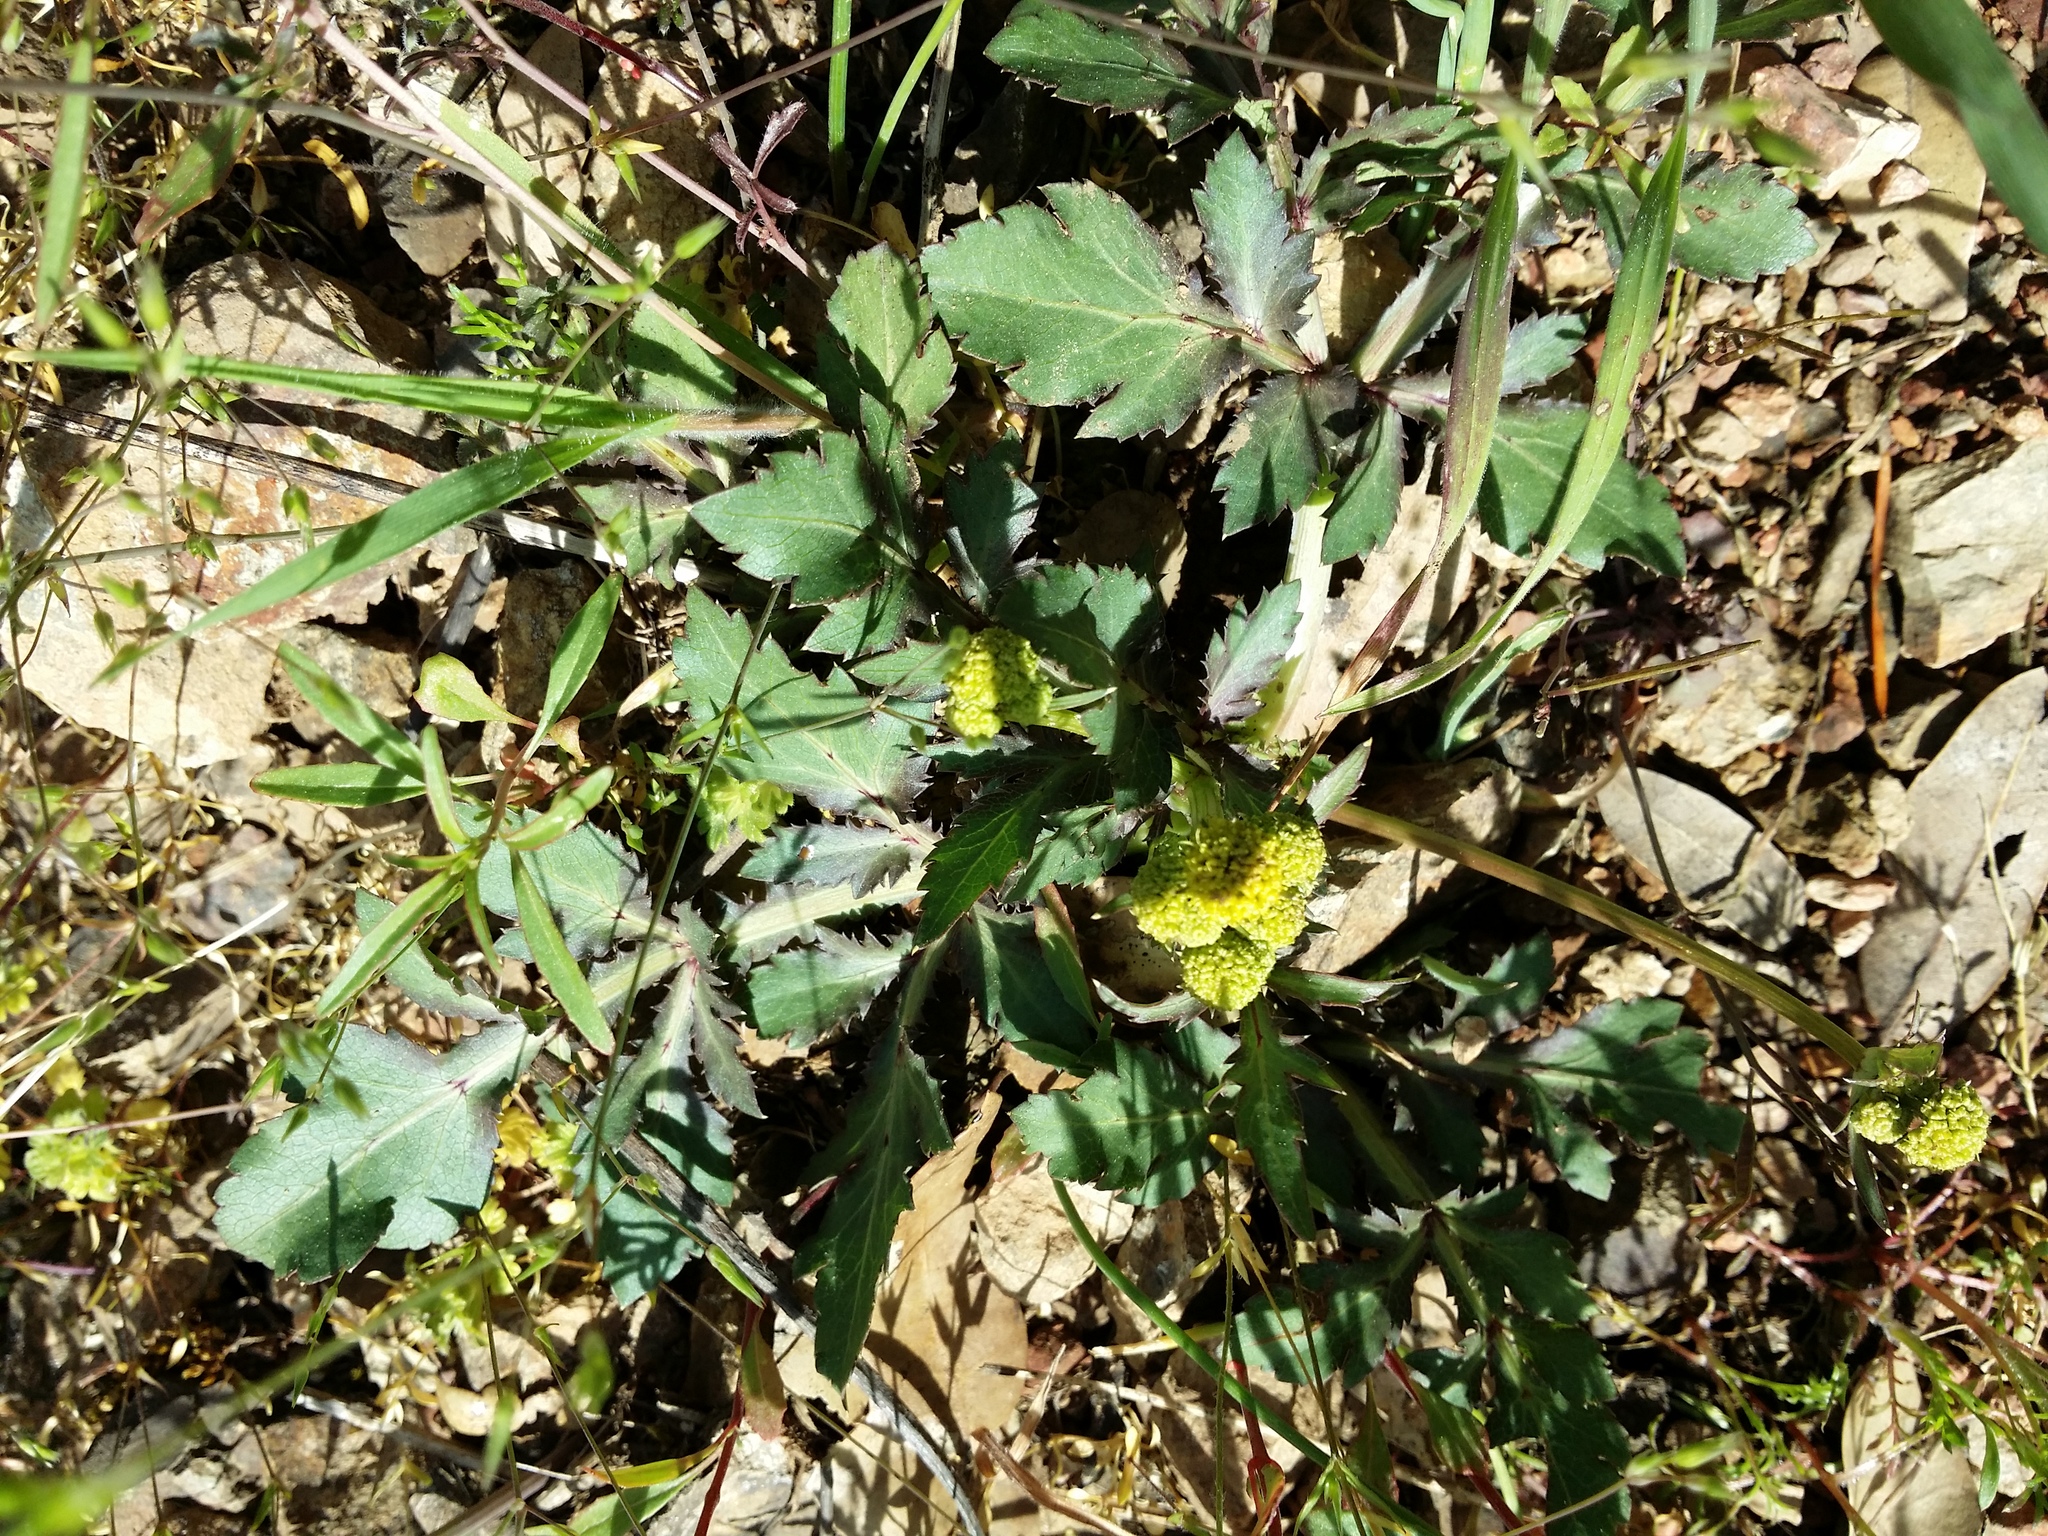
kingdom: Plantae
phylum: Tracheophyta
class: Magnoliopsida
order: Apiales
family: Apiaceae
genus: Sanicula
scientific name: Sanicula bipinnatifida
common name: Shoe-buttons
